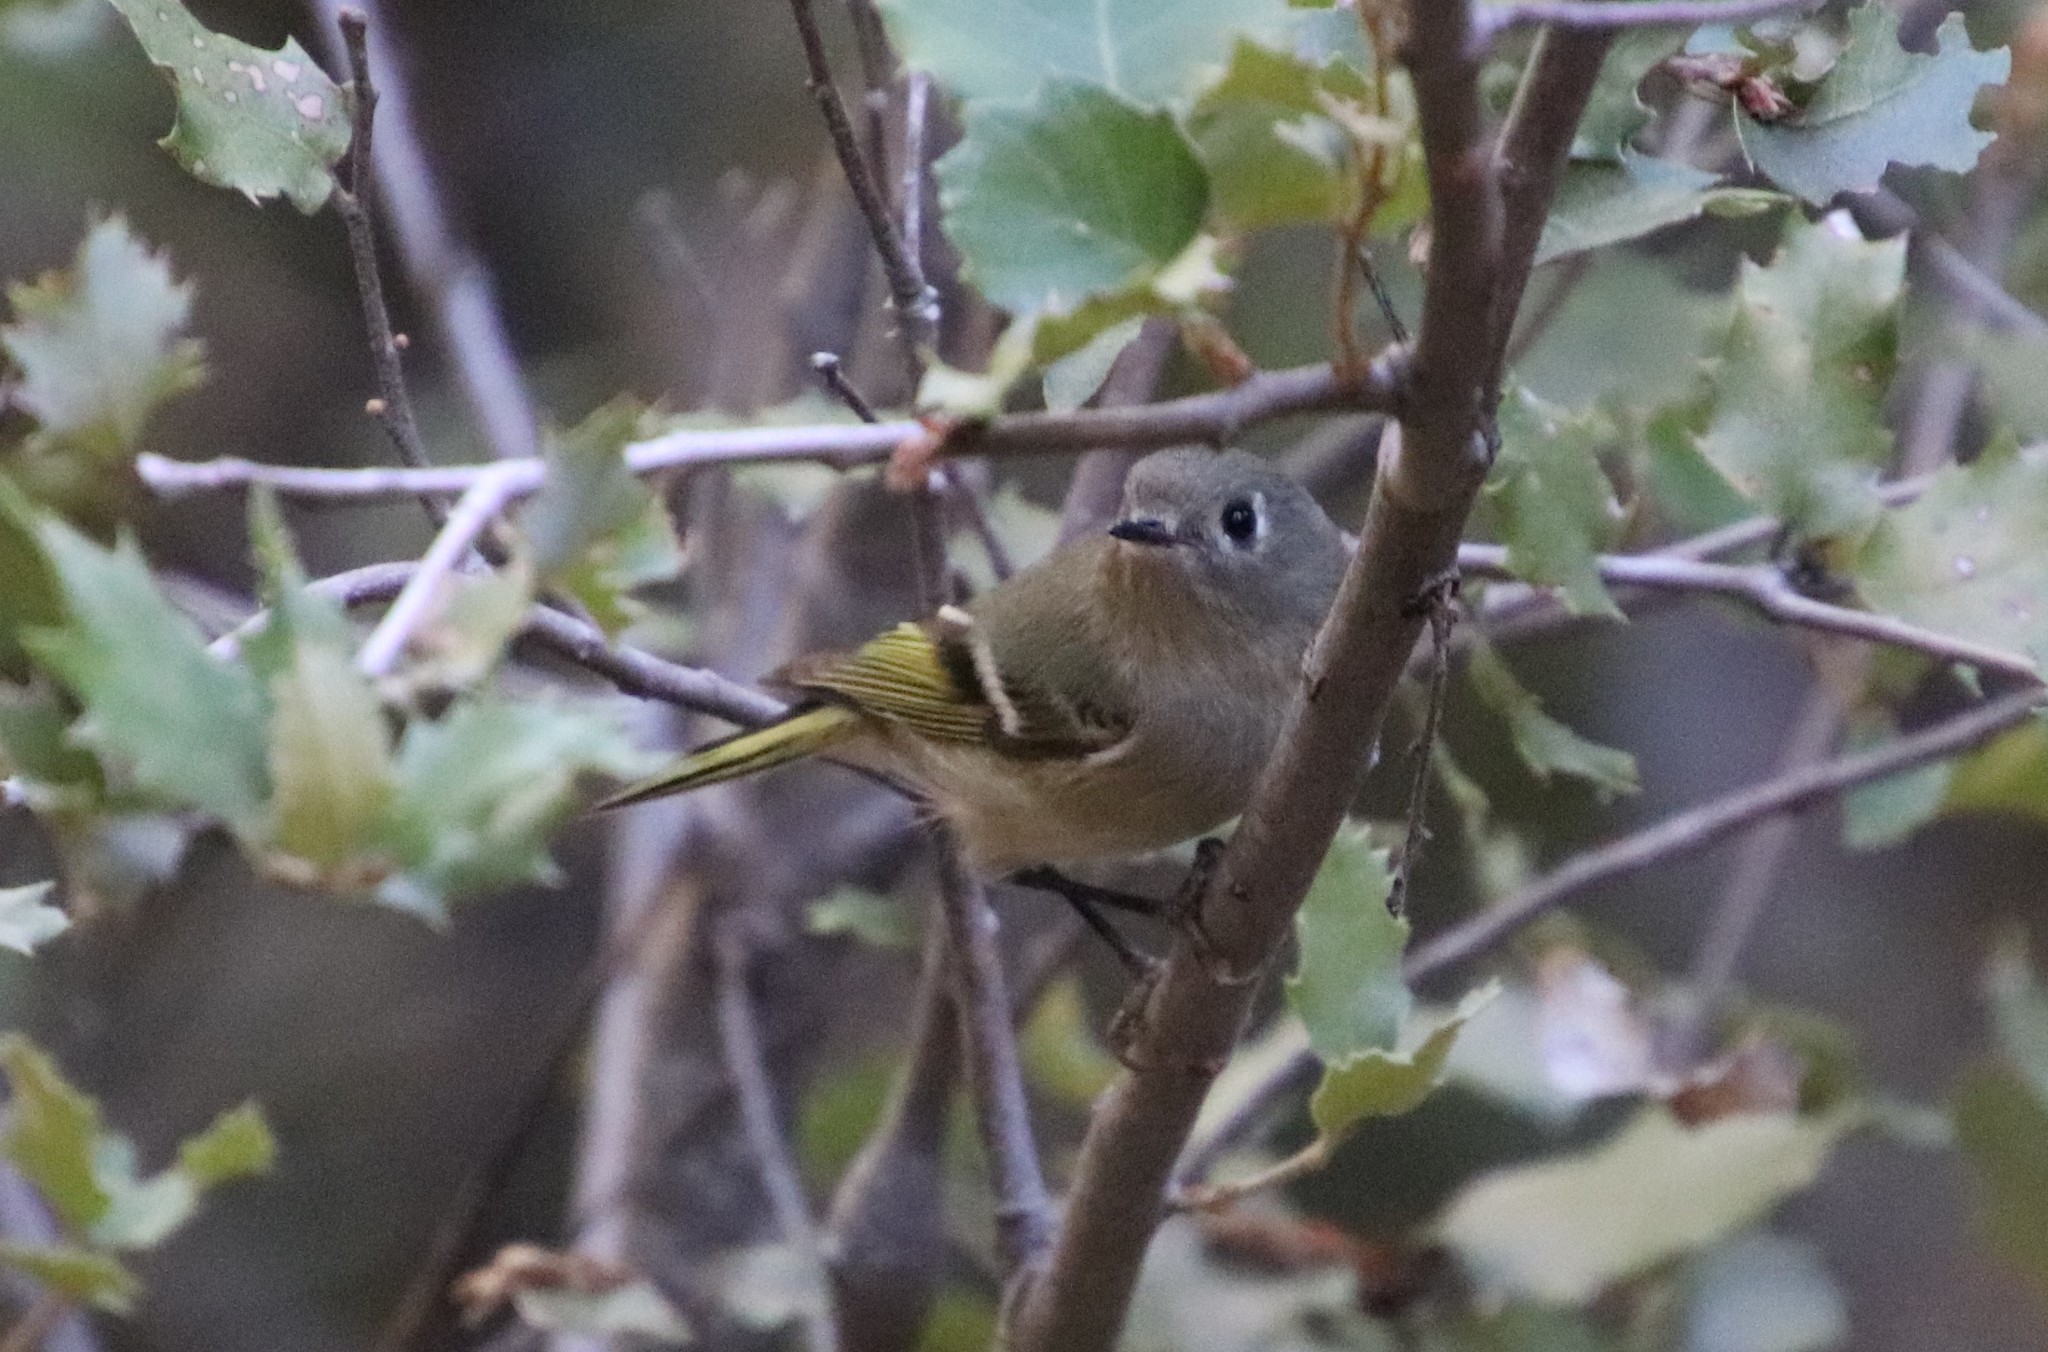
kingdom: Animalia
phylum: Chordata
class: Aves
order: Passeriformes
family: Regulidae
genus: Regulus
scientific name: Regulus calendula
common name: Ruby-crowned kinglet
